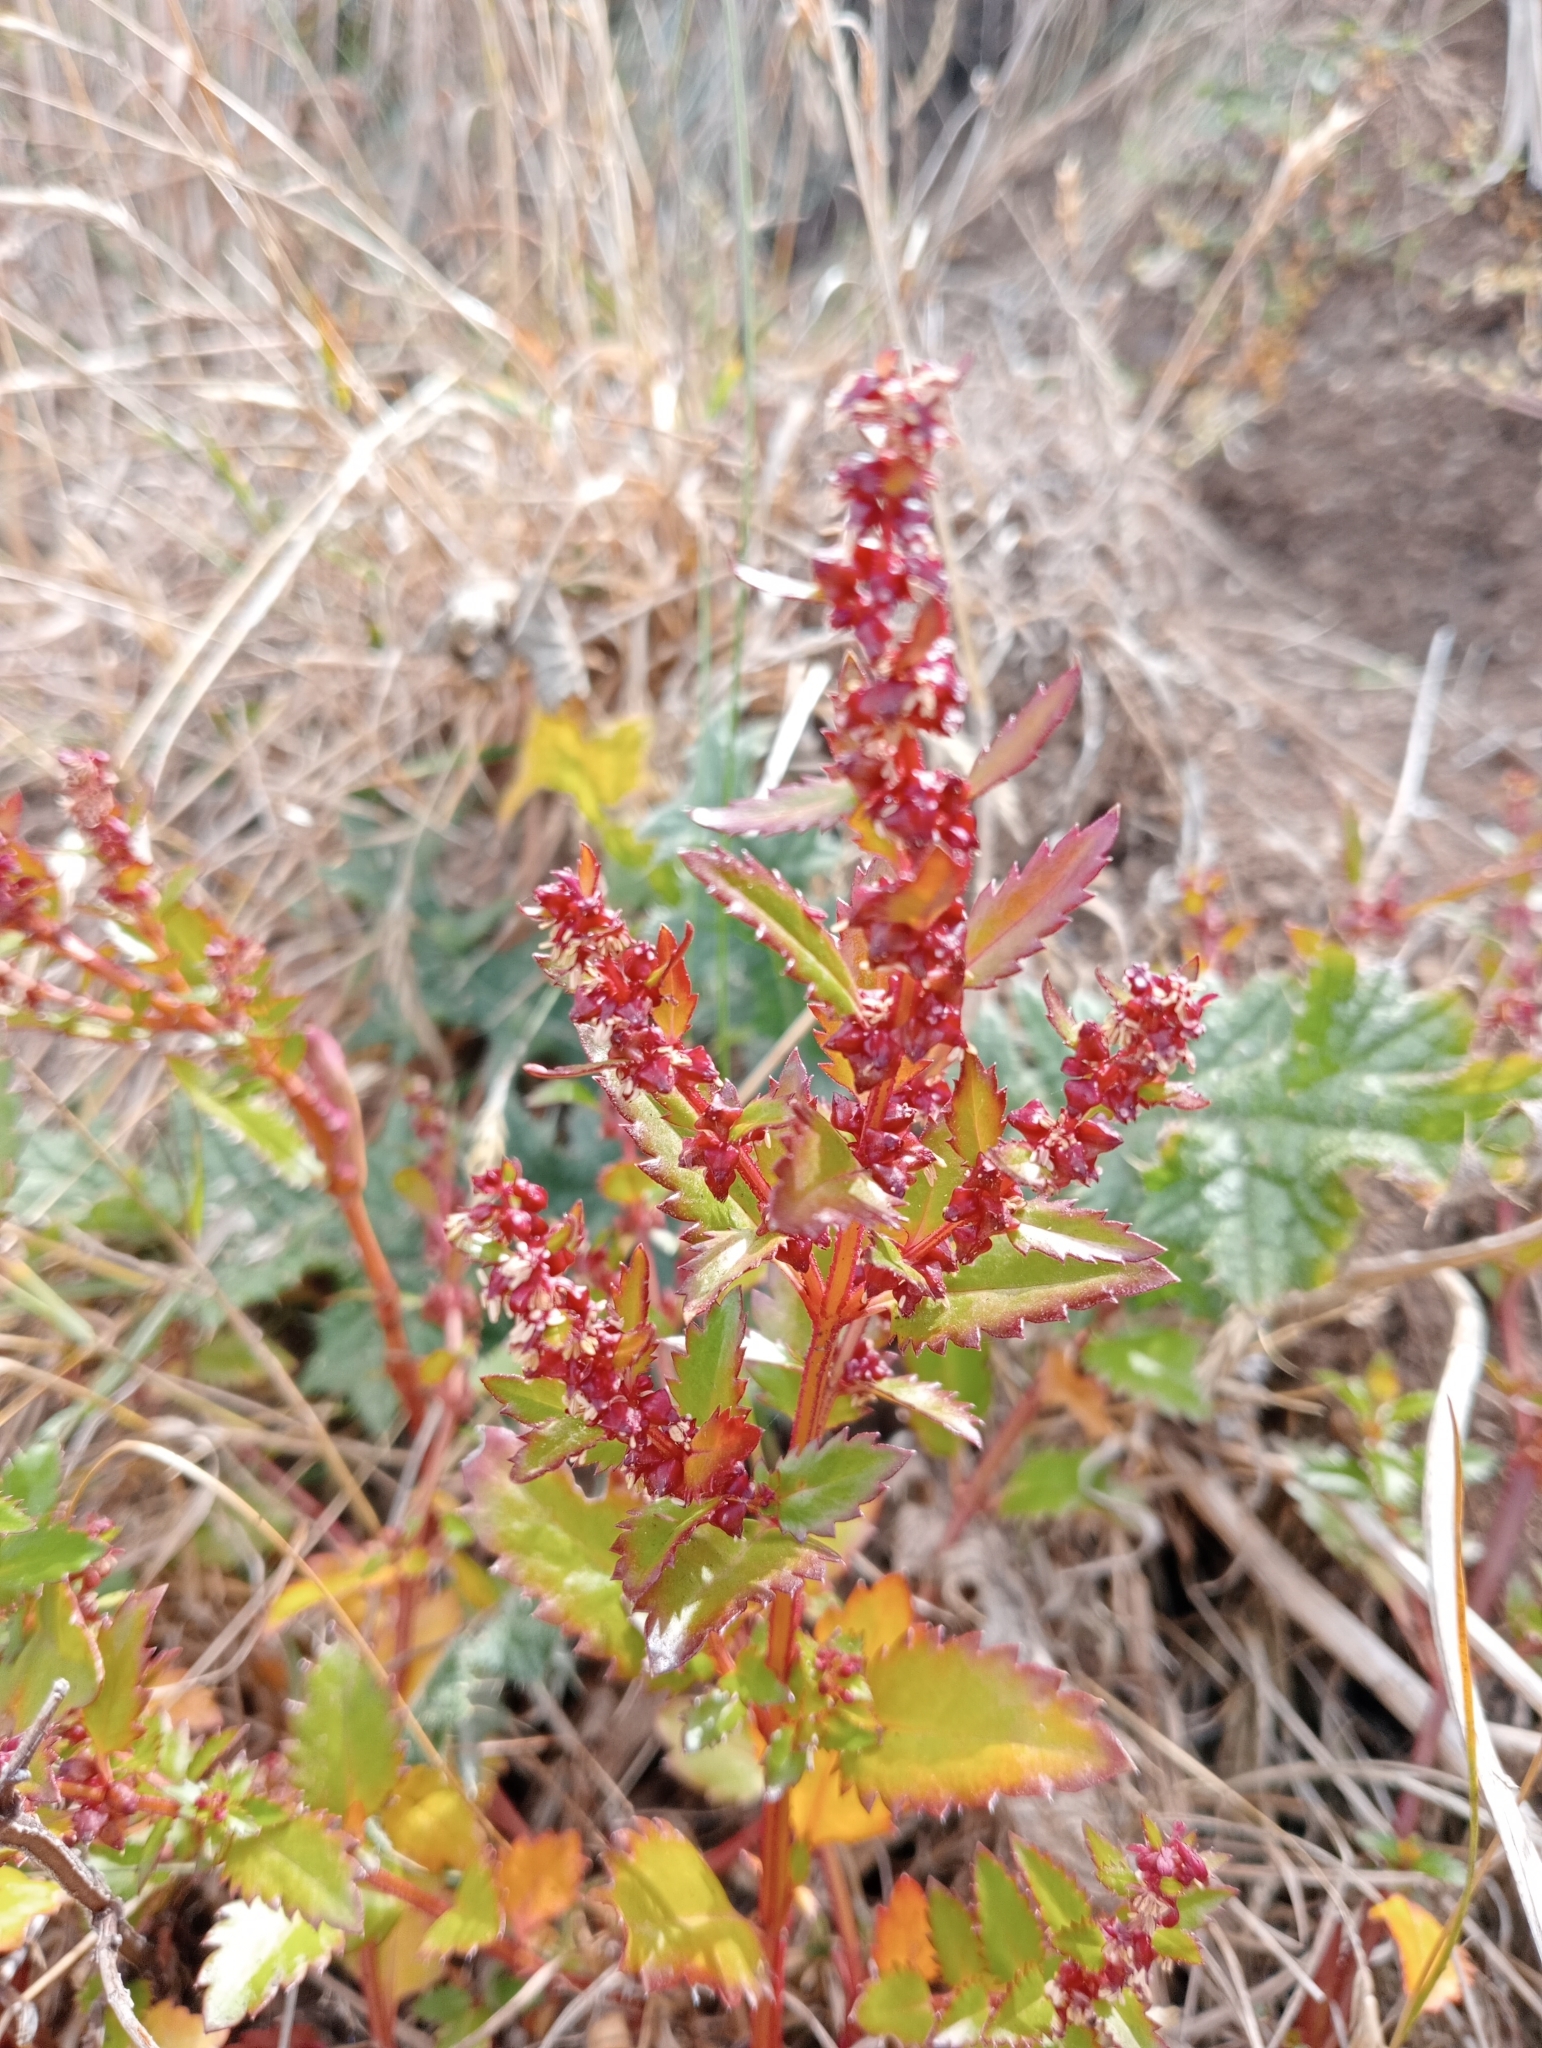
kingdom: Plantae
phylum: Tracheophyta
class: Magnoliopsida
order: Saxifragales
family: Haloragaceae
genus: Haloragis
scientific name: Haloragis erecta
